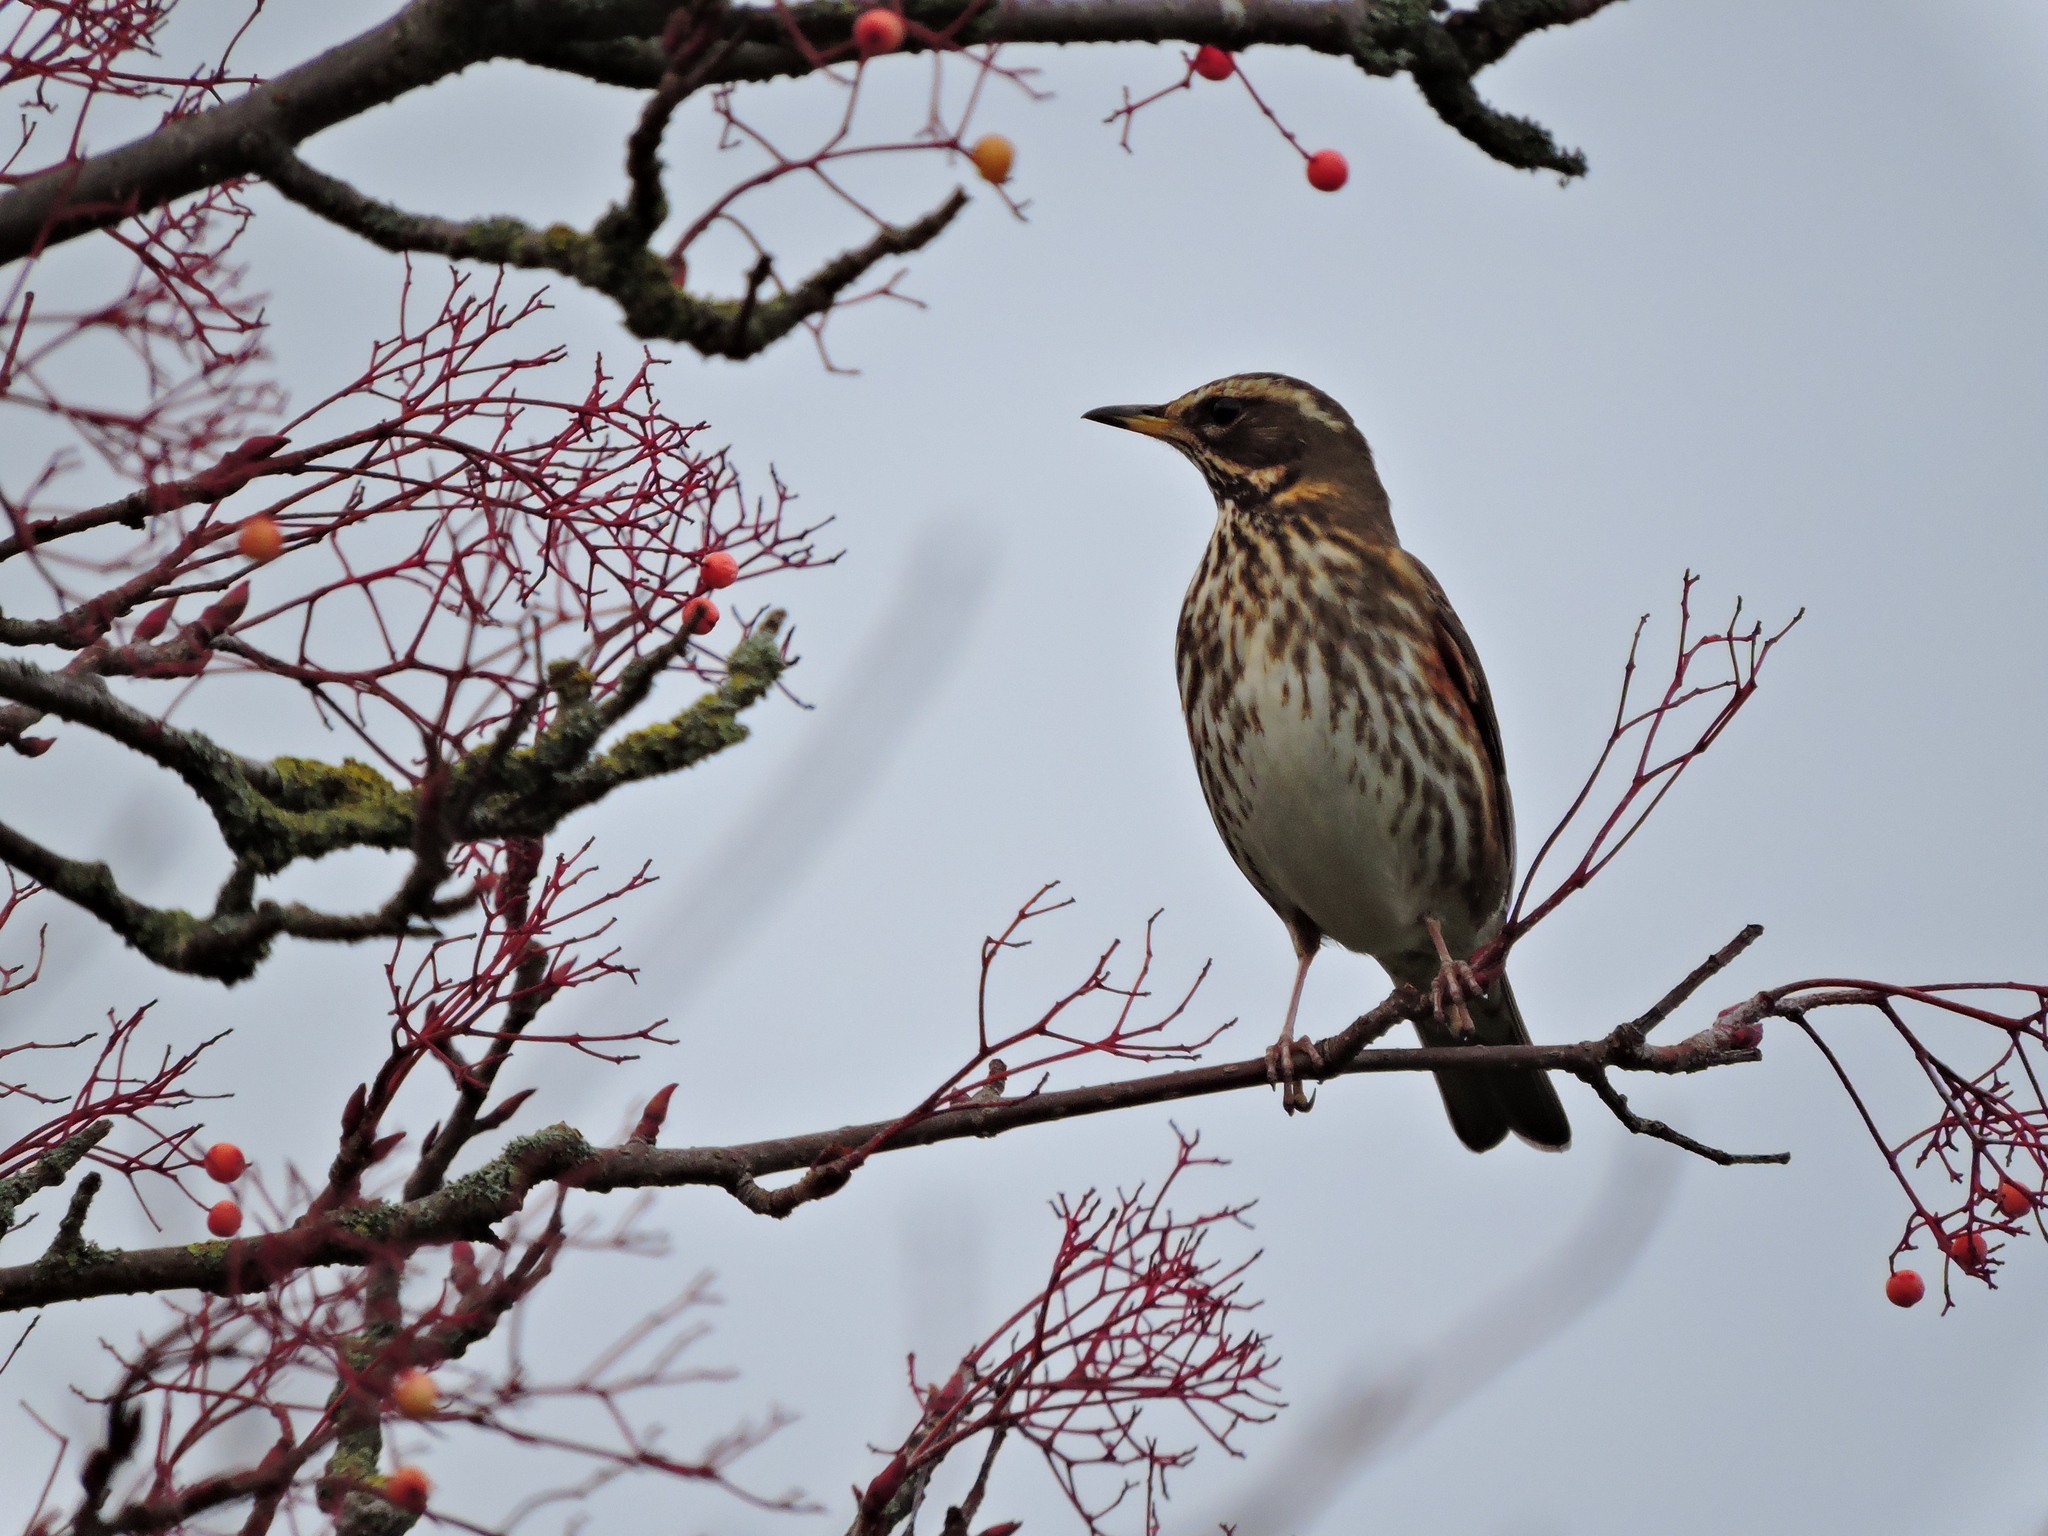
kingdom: Animalia
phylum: Chordata
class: Aves
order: Passeriformes
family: Turdidae
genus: Turdus
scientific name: Turdus iliacus
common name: Redwing
